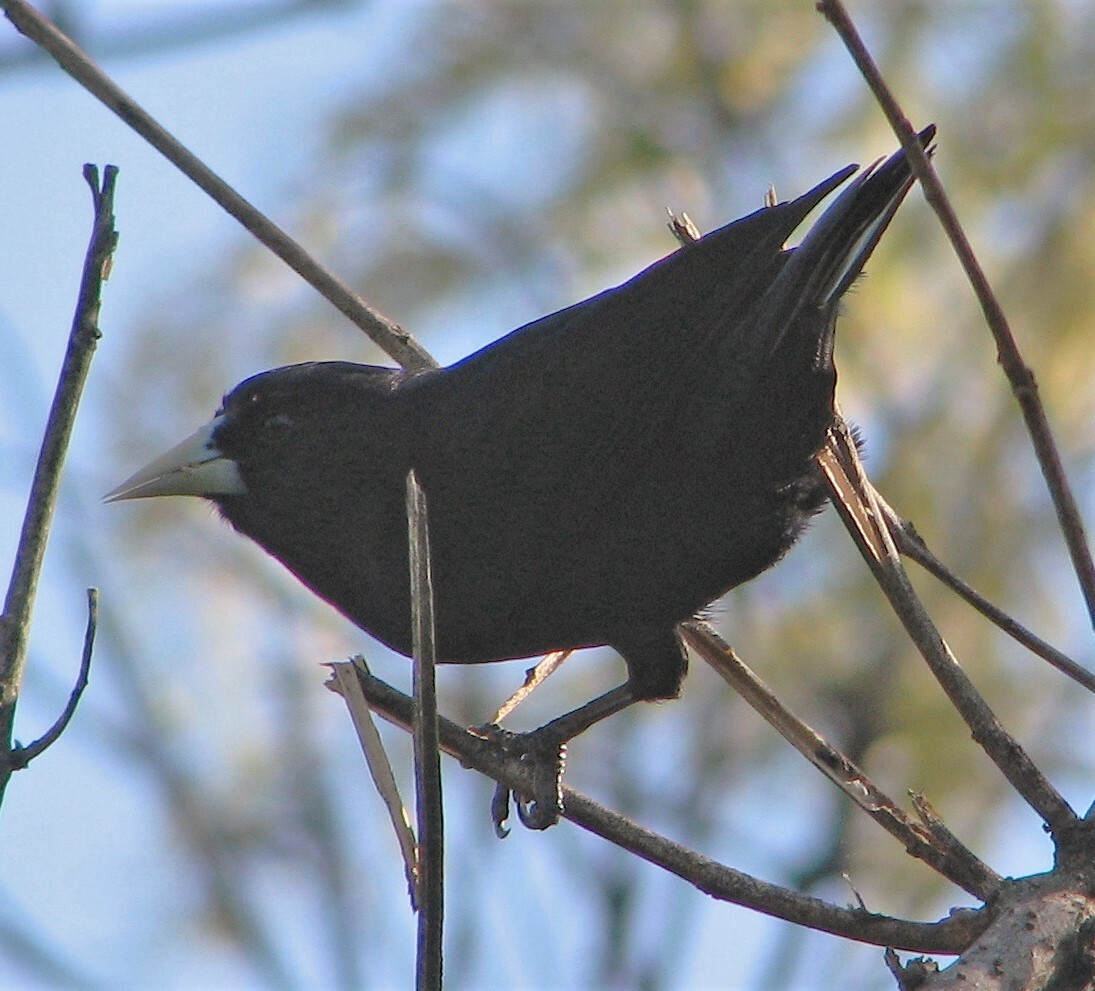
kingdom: Animalia
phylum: Chordata
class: Aves
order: Passeriformes
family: Icteridae
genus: Cacicus
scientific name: Cacicus solitarius
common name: Solitary cacique
